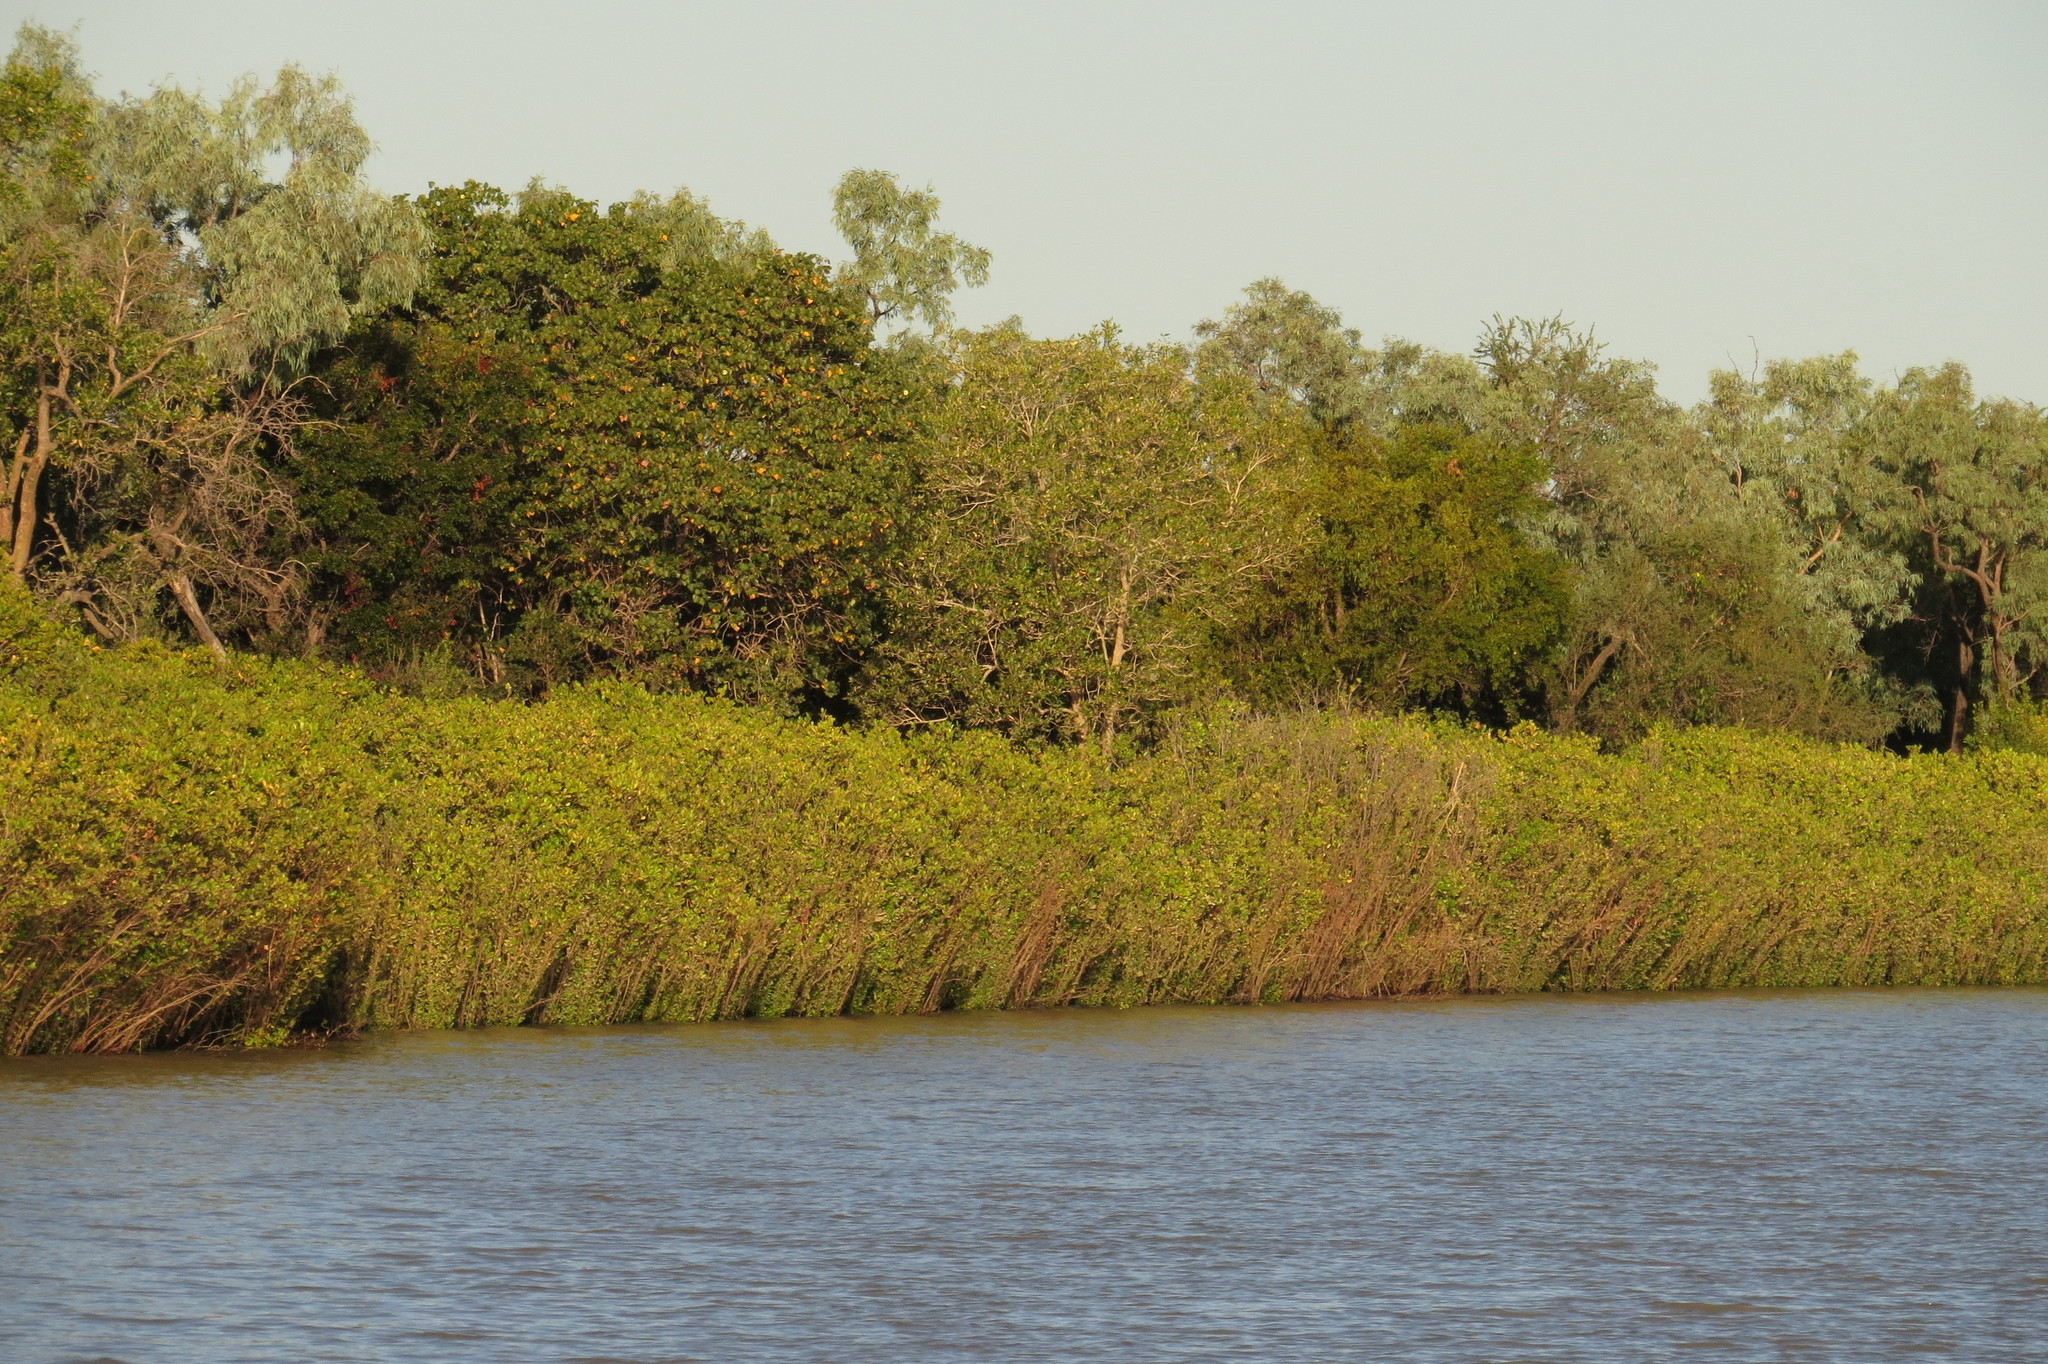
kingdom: Plantae
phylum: Tracheophyta
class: Magnoliopsida
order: Ericales
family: Primulaceae
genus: Aegiceras
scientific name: Aegiceras corniculatum
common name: River mangrove
